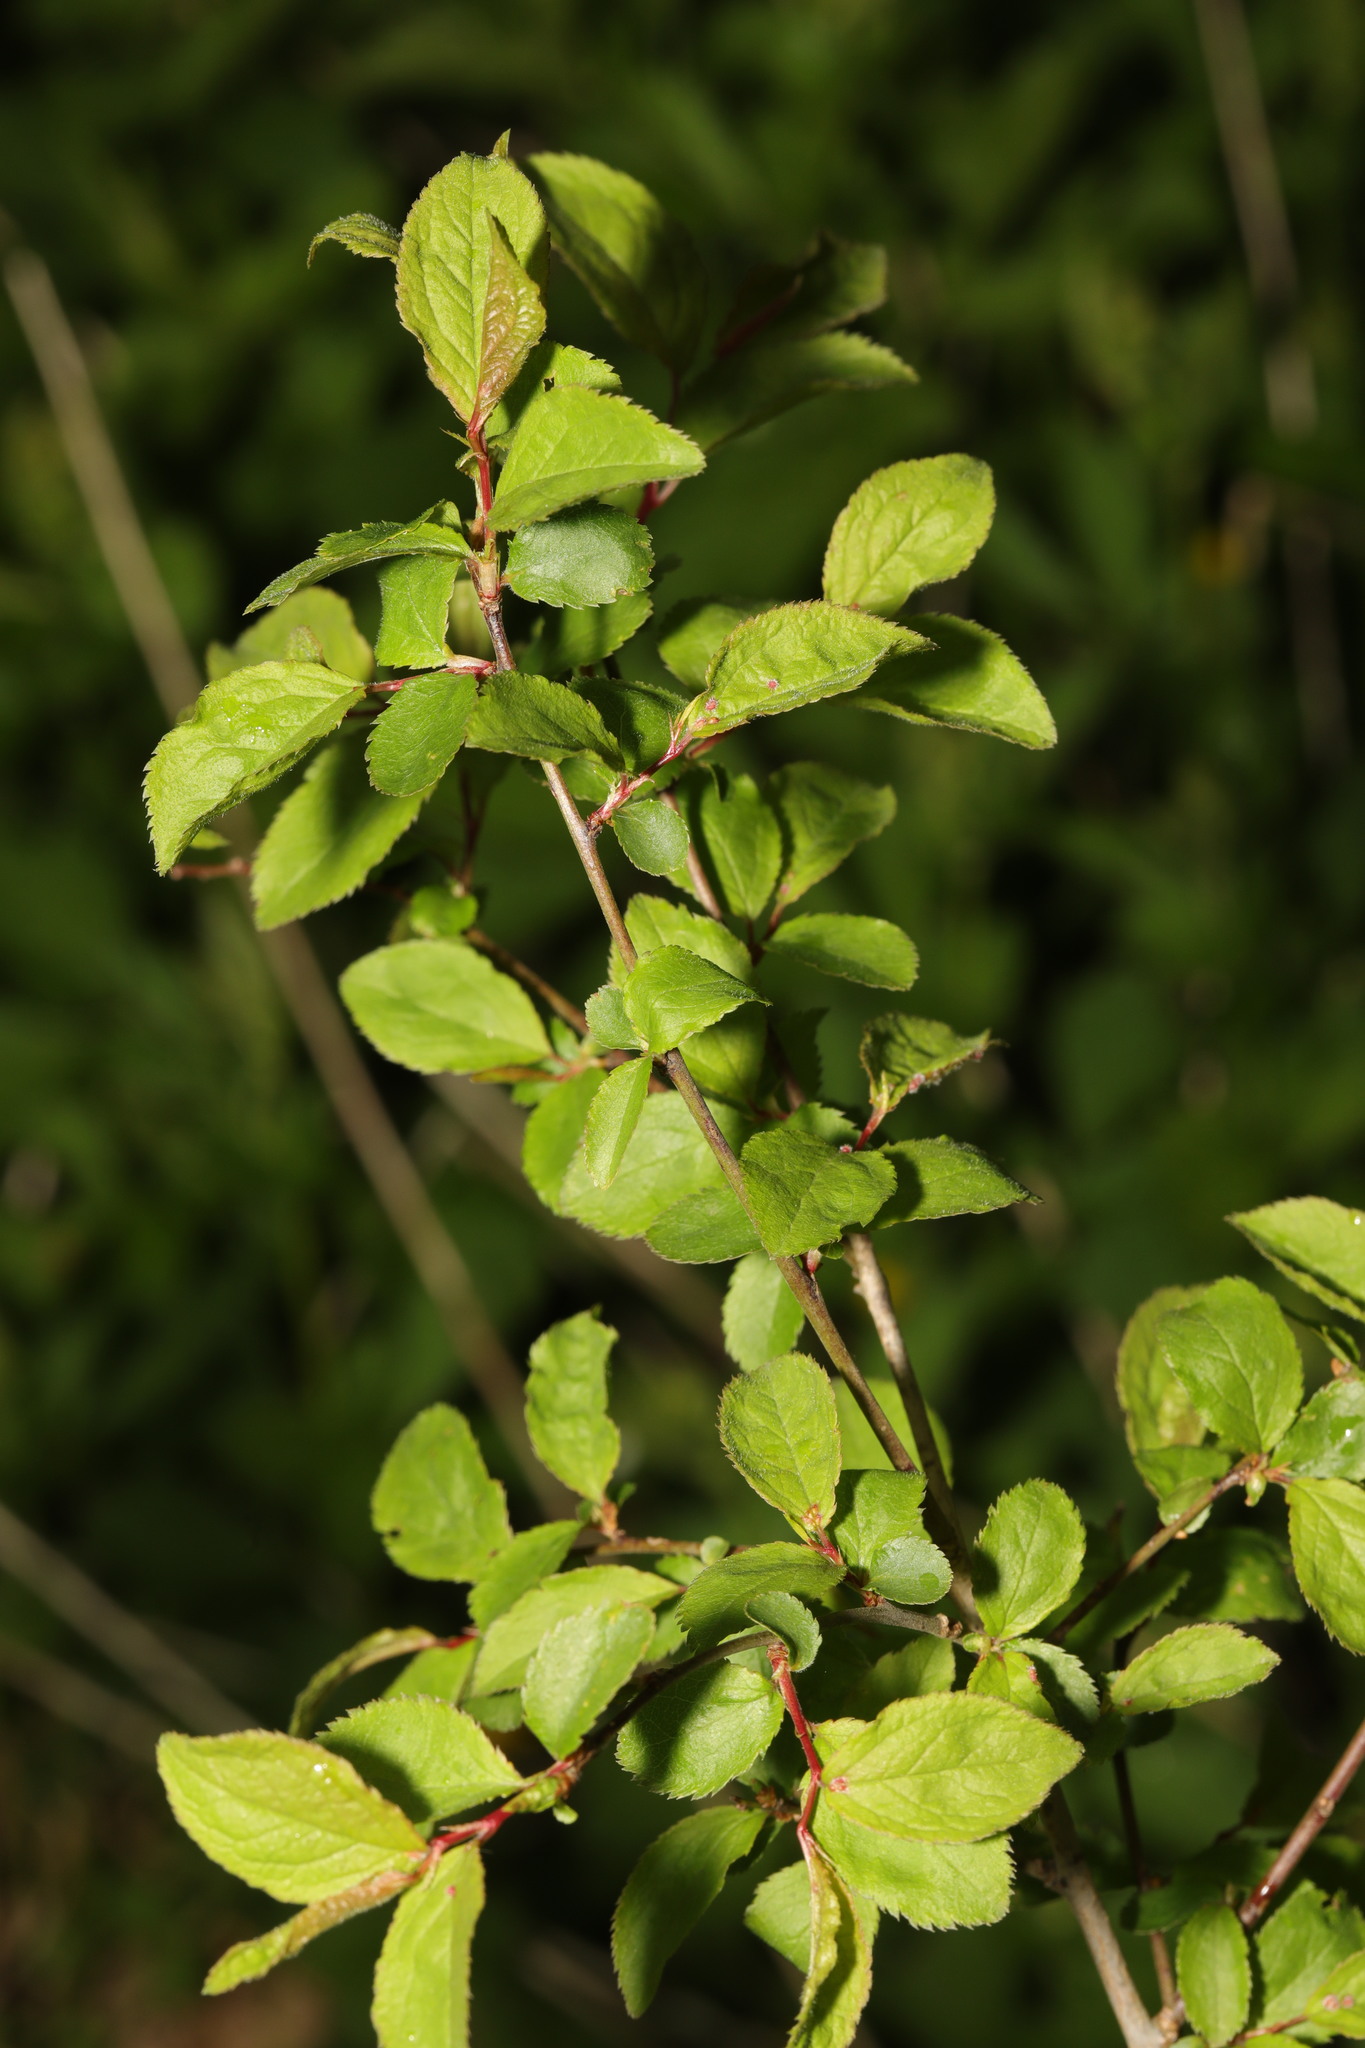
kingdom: Plantae
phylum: Tracheophyta
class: Magnoliopsida
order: Rosales
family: Rosaceae
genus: Prunus
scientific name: Prunus spinosa
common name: Blackthorn
